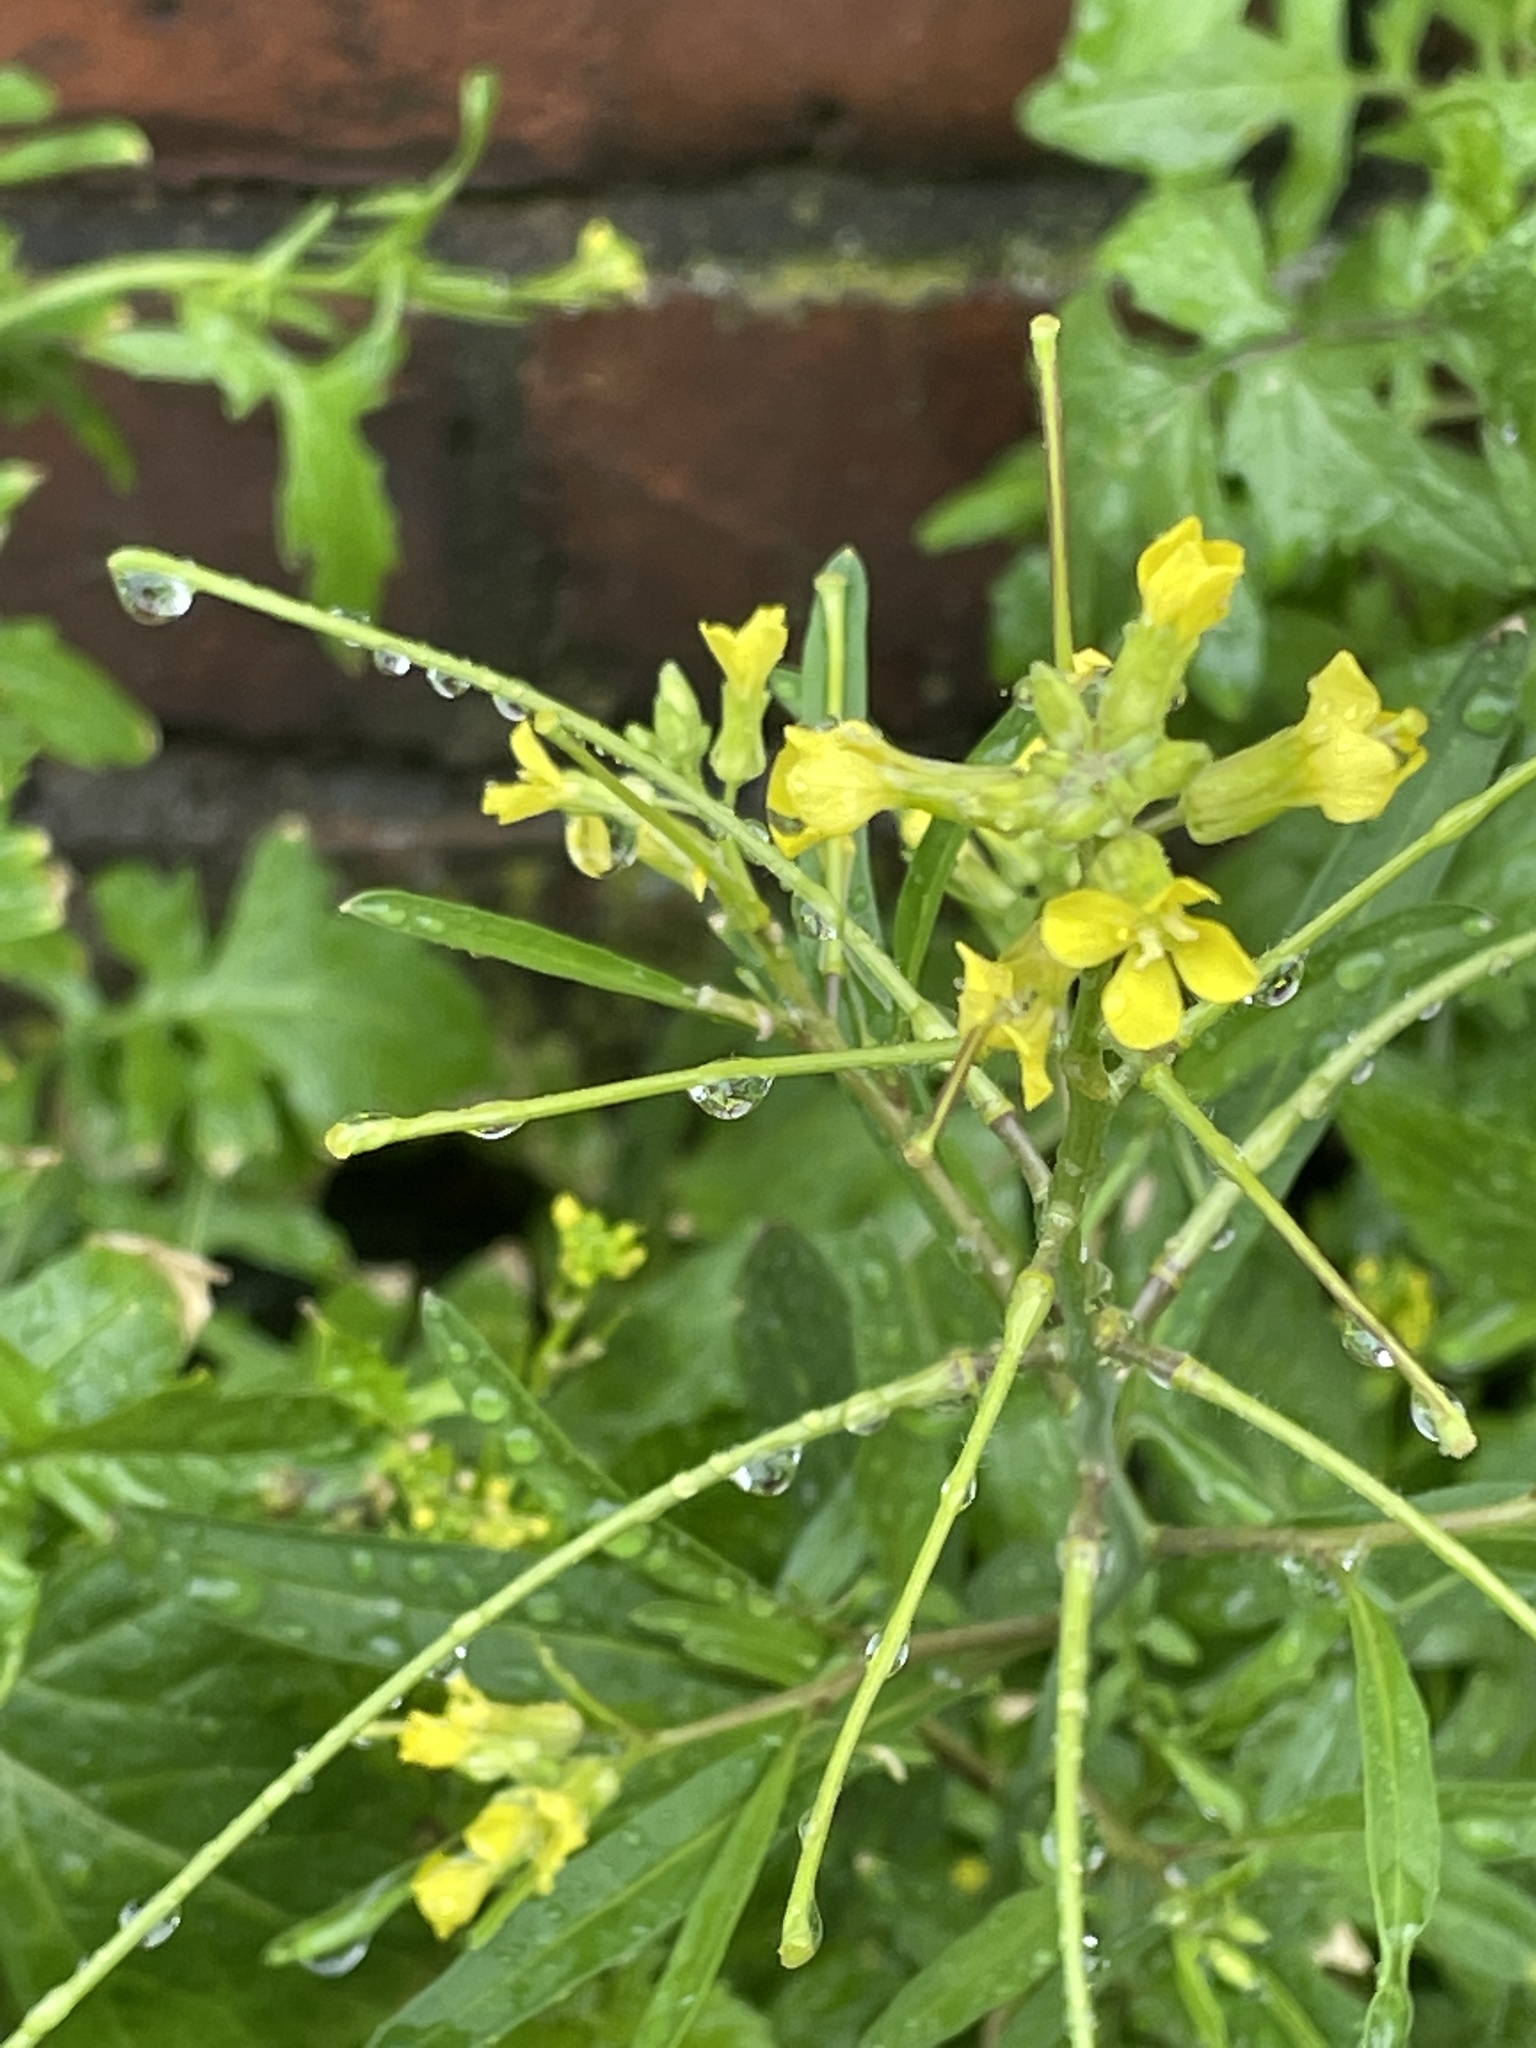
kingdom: Plantae
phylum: Tracheophyta
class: Magnoliopsida
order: Brassicales
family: Brassicaceae
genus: Sisymbrium
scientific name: Sisymbrium officinale
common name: Hedge mustard
